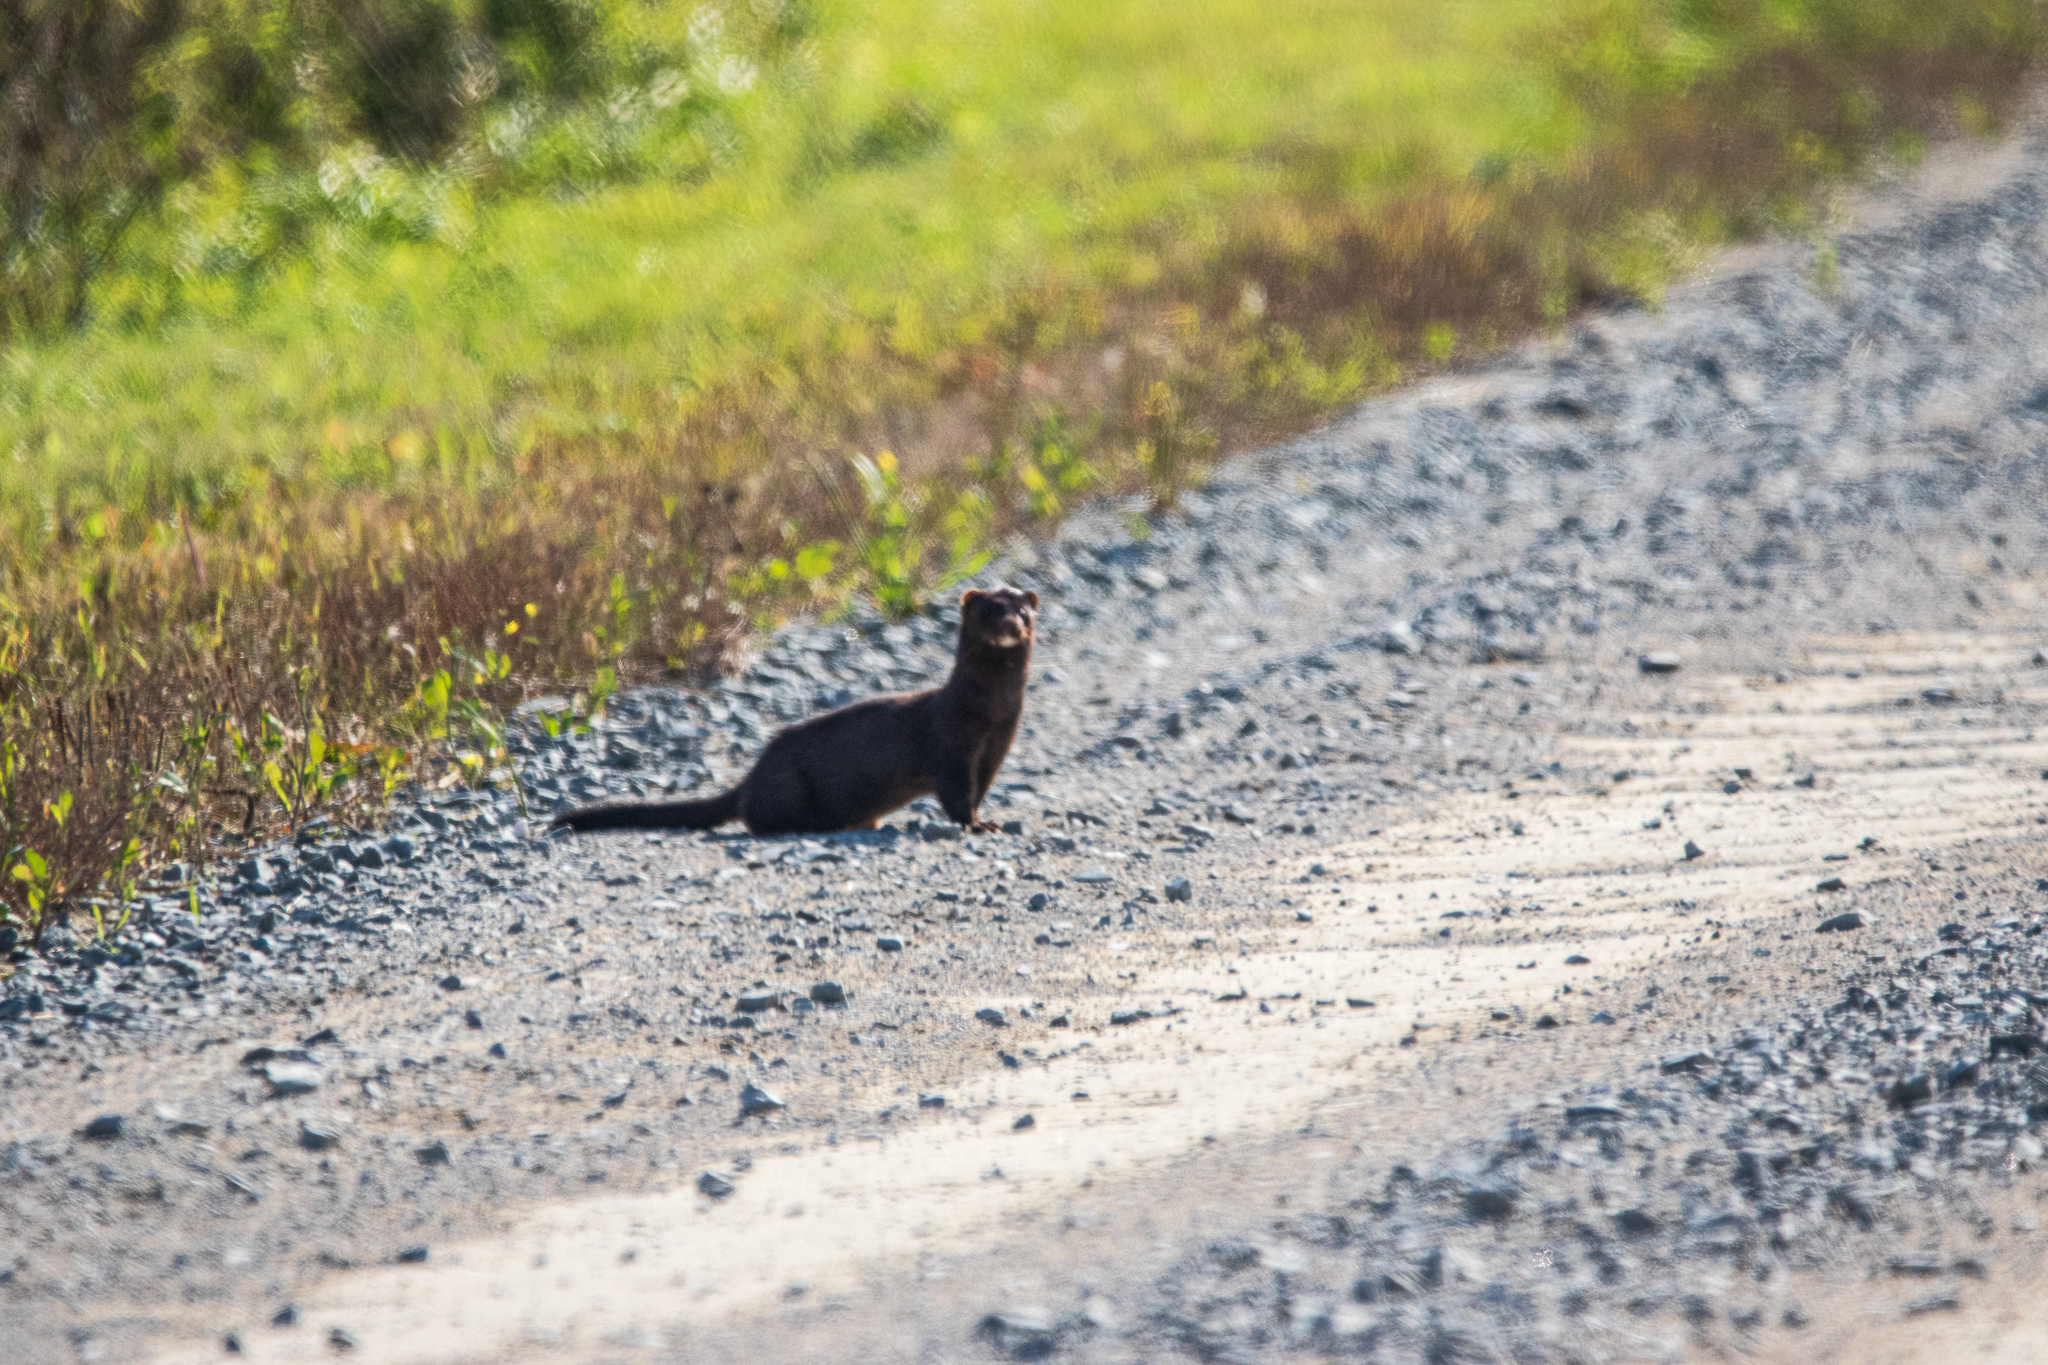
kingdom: Animalia
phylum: Chordata
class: Mammalia
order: Carnivora
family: Mustelidae
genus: Mustela
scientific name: Mustela
